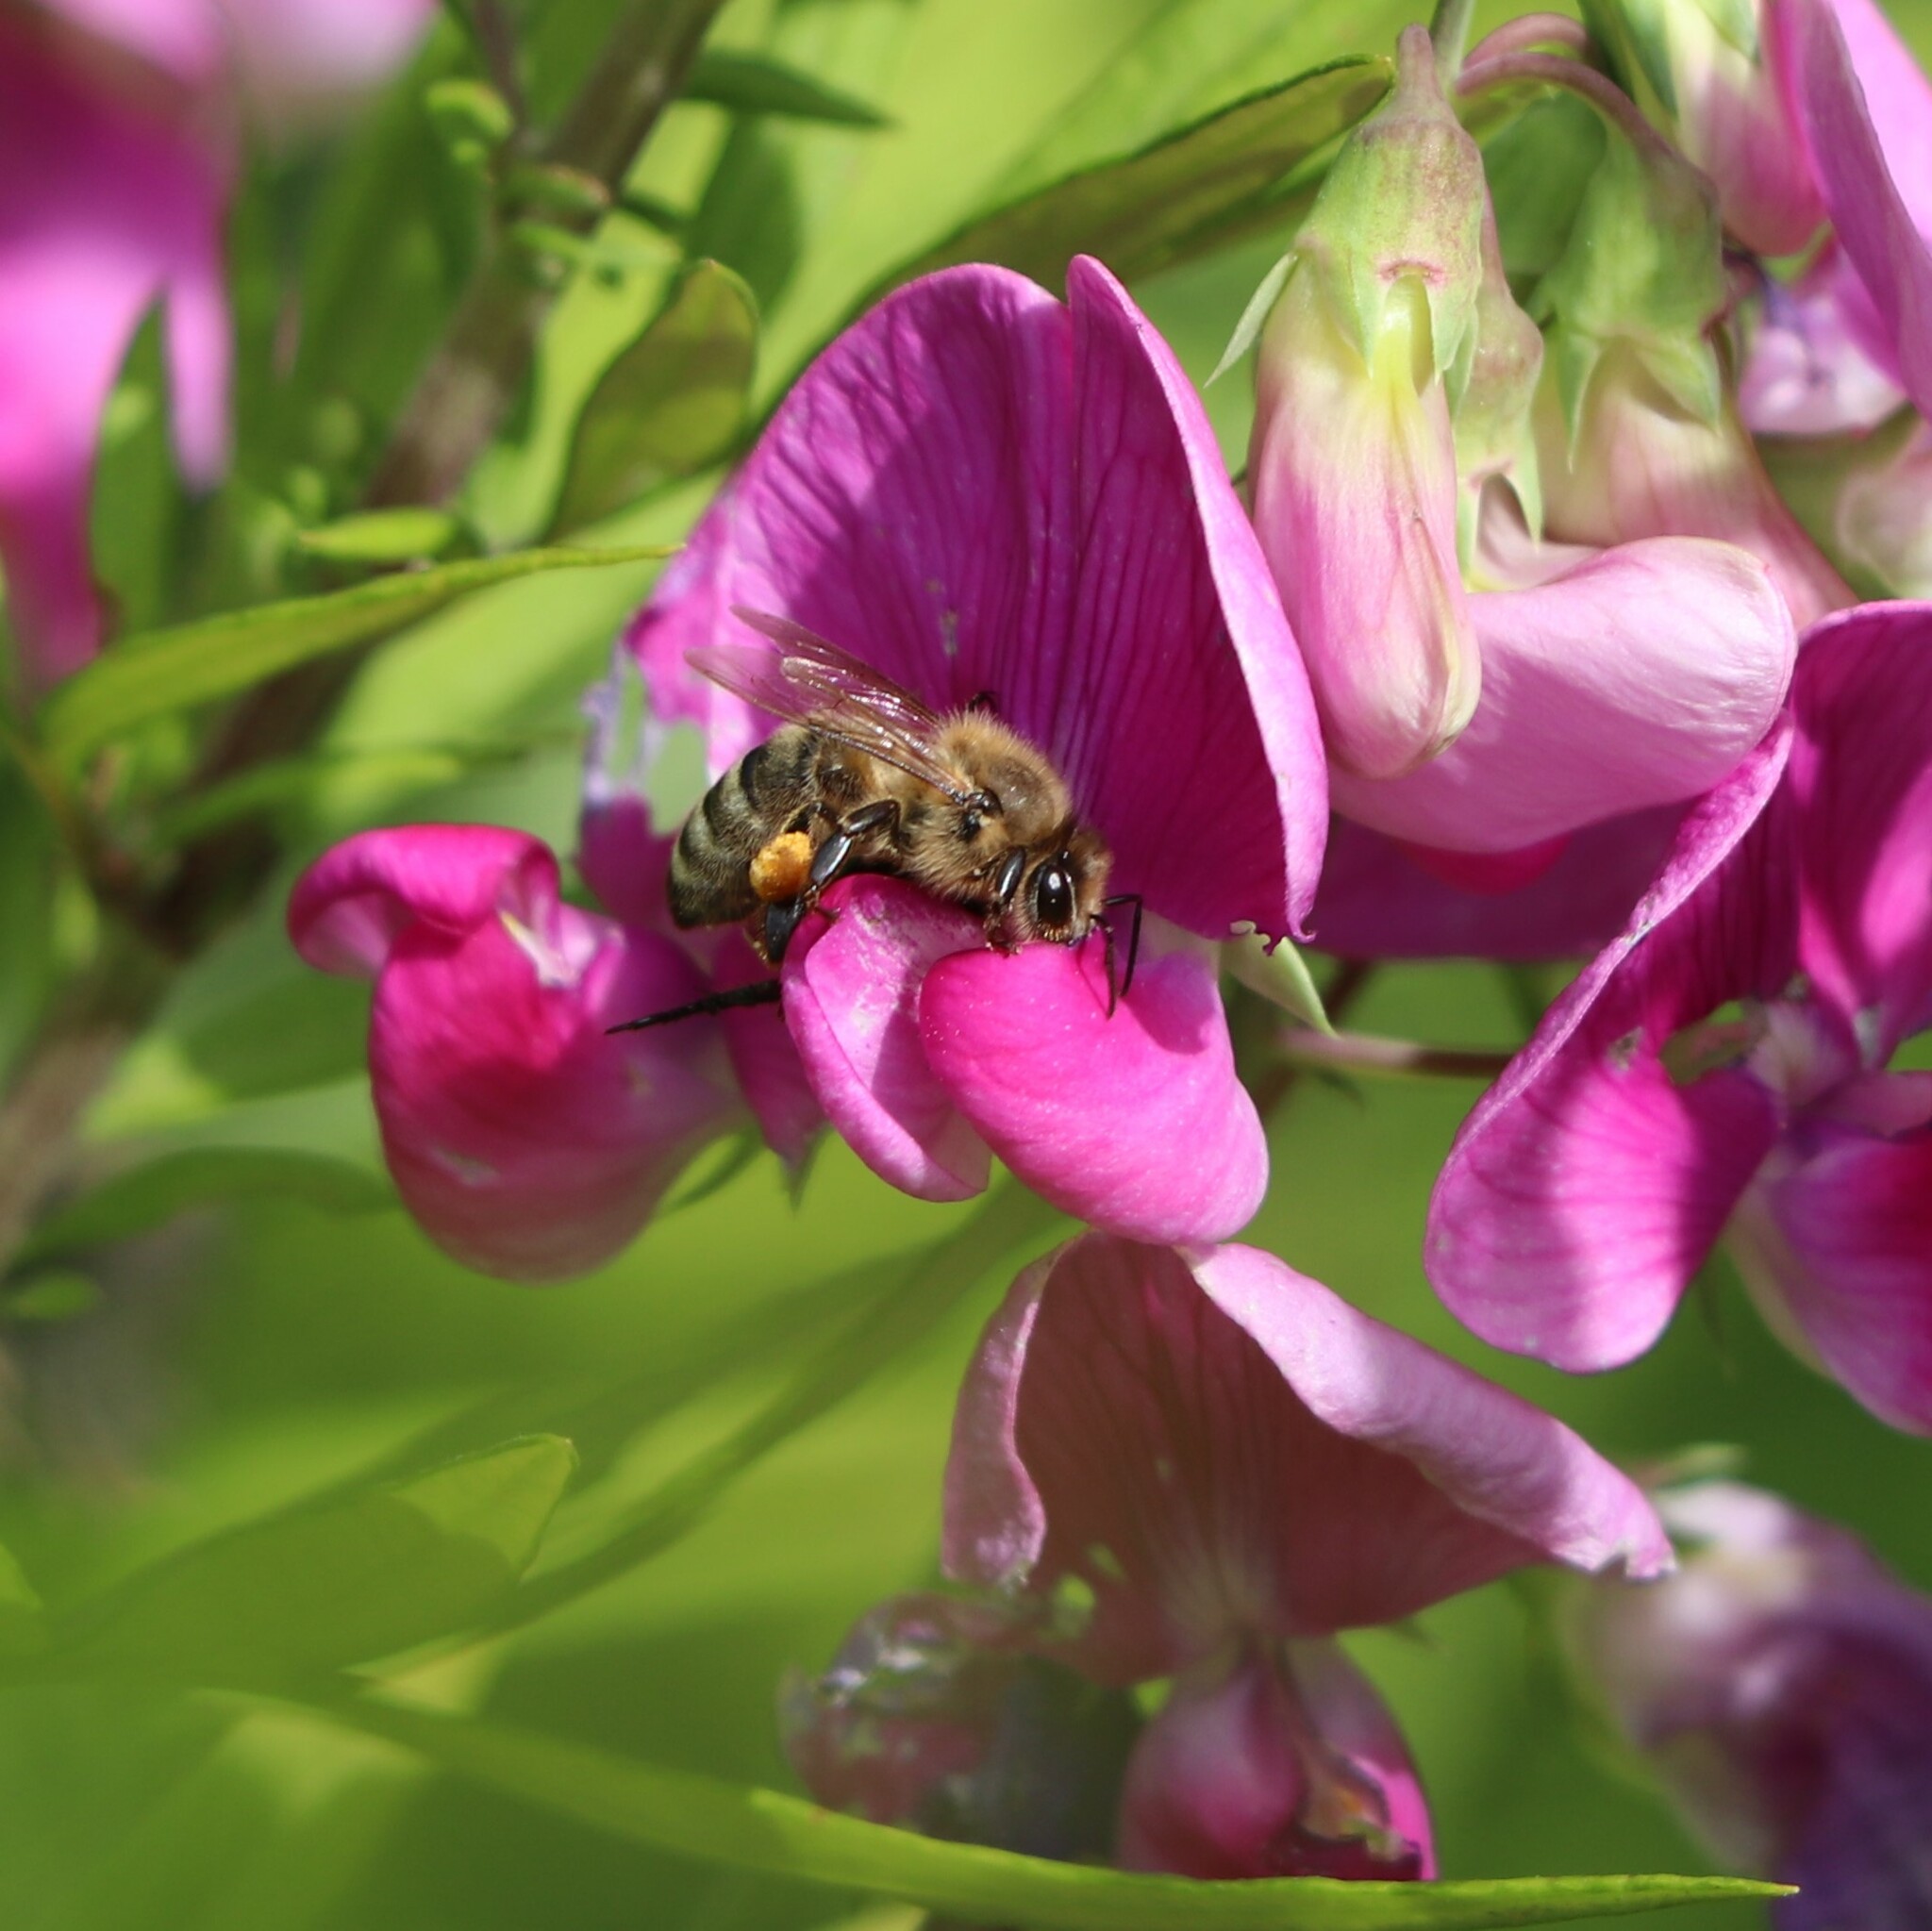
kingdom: Animalia
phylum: Arthropoda
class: Insecta
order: Hymenoptera
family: Apidae
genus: Apis
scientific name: Apis mellifera
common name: Honey bee
